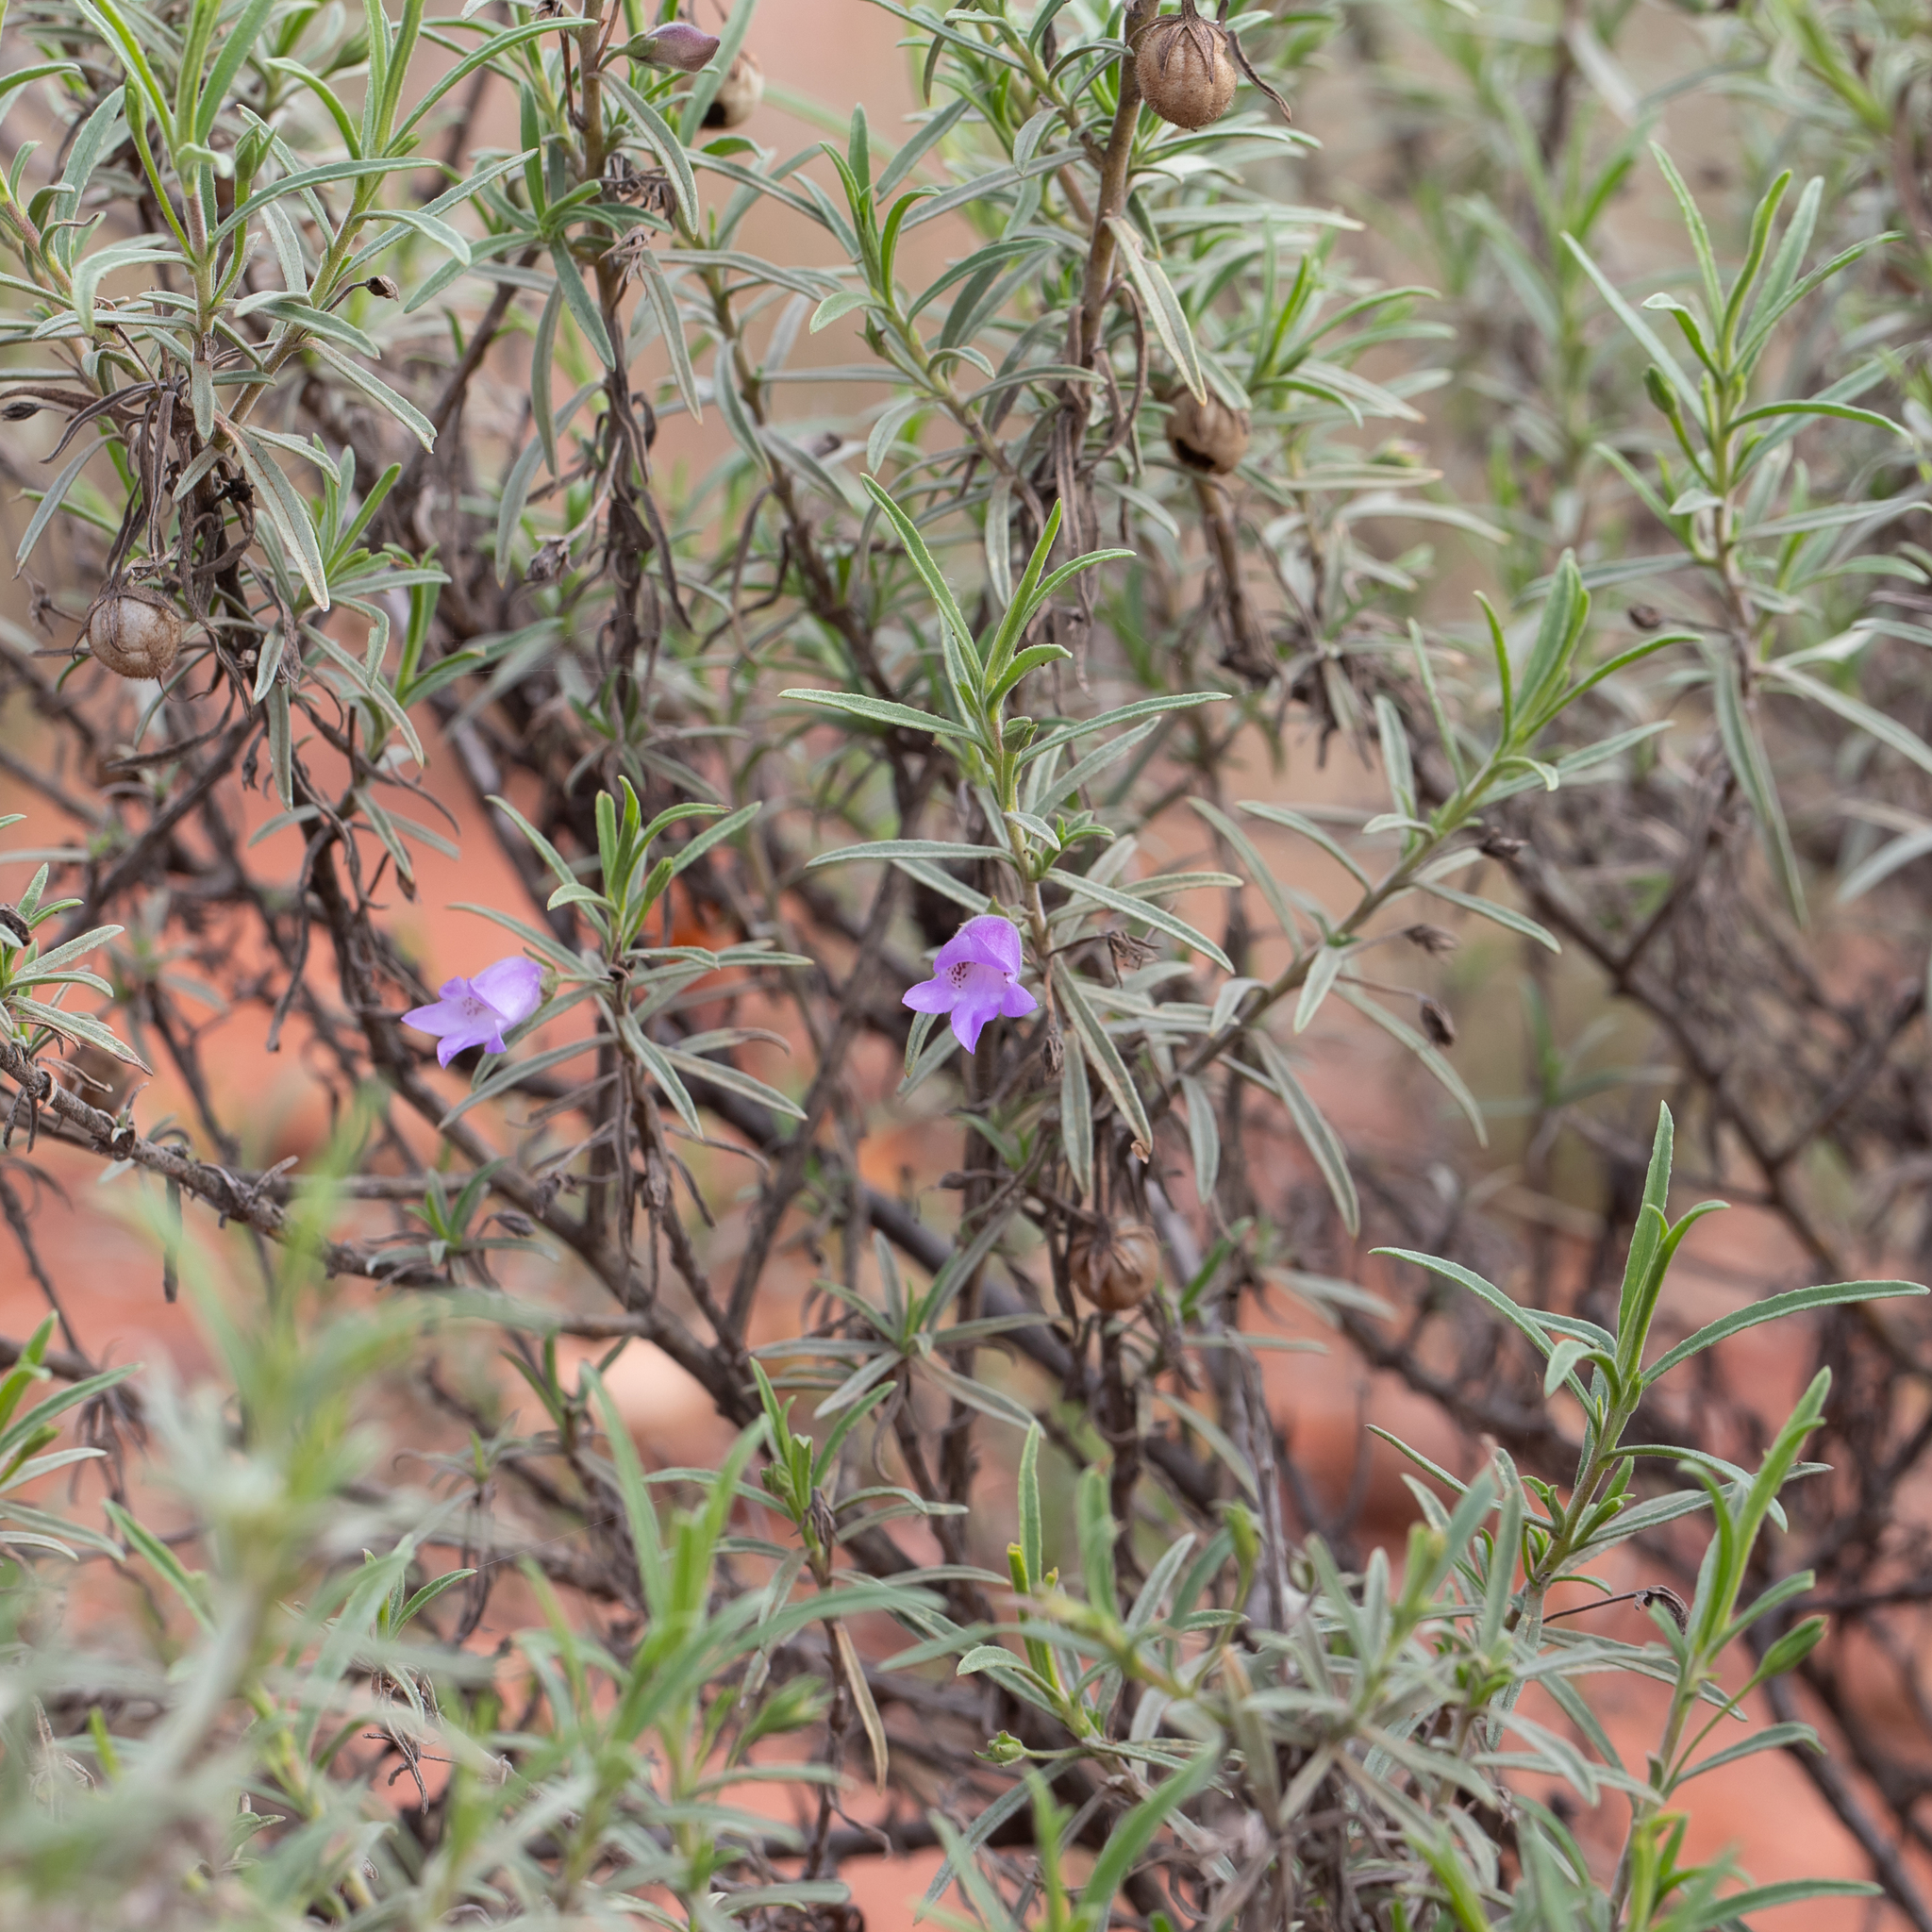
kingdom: Plantae
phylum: Tracheophyta
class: Magnoliopsida
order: Lamiales
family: Scrophulariaceae
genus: Eremophila
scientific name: Eremophila gilesii
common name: Desert fuchsia
